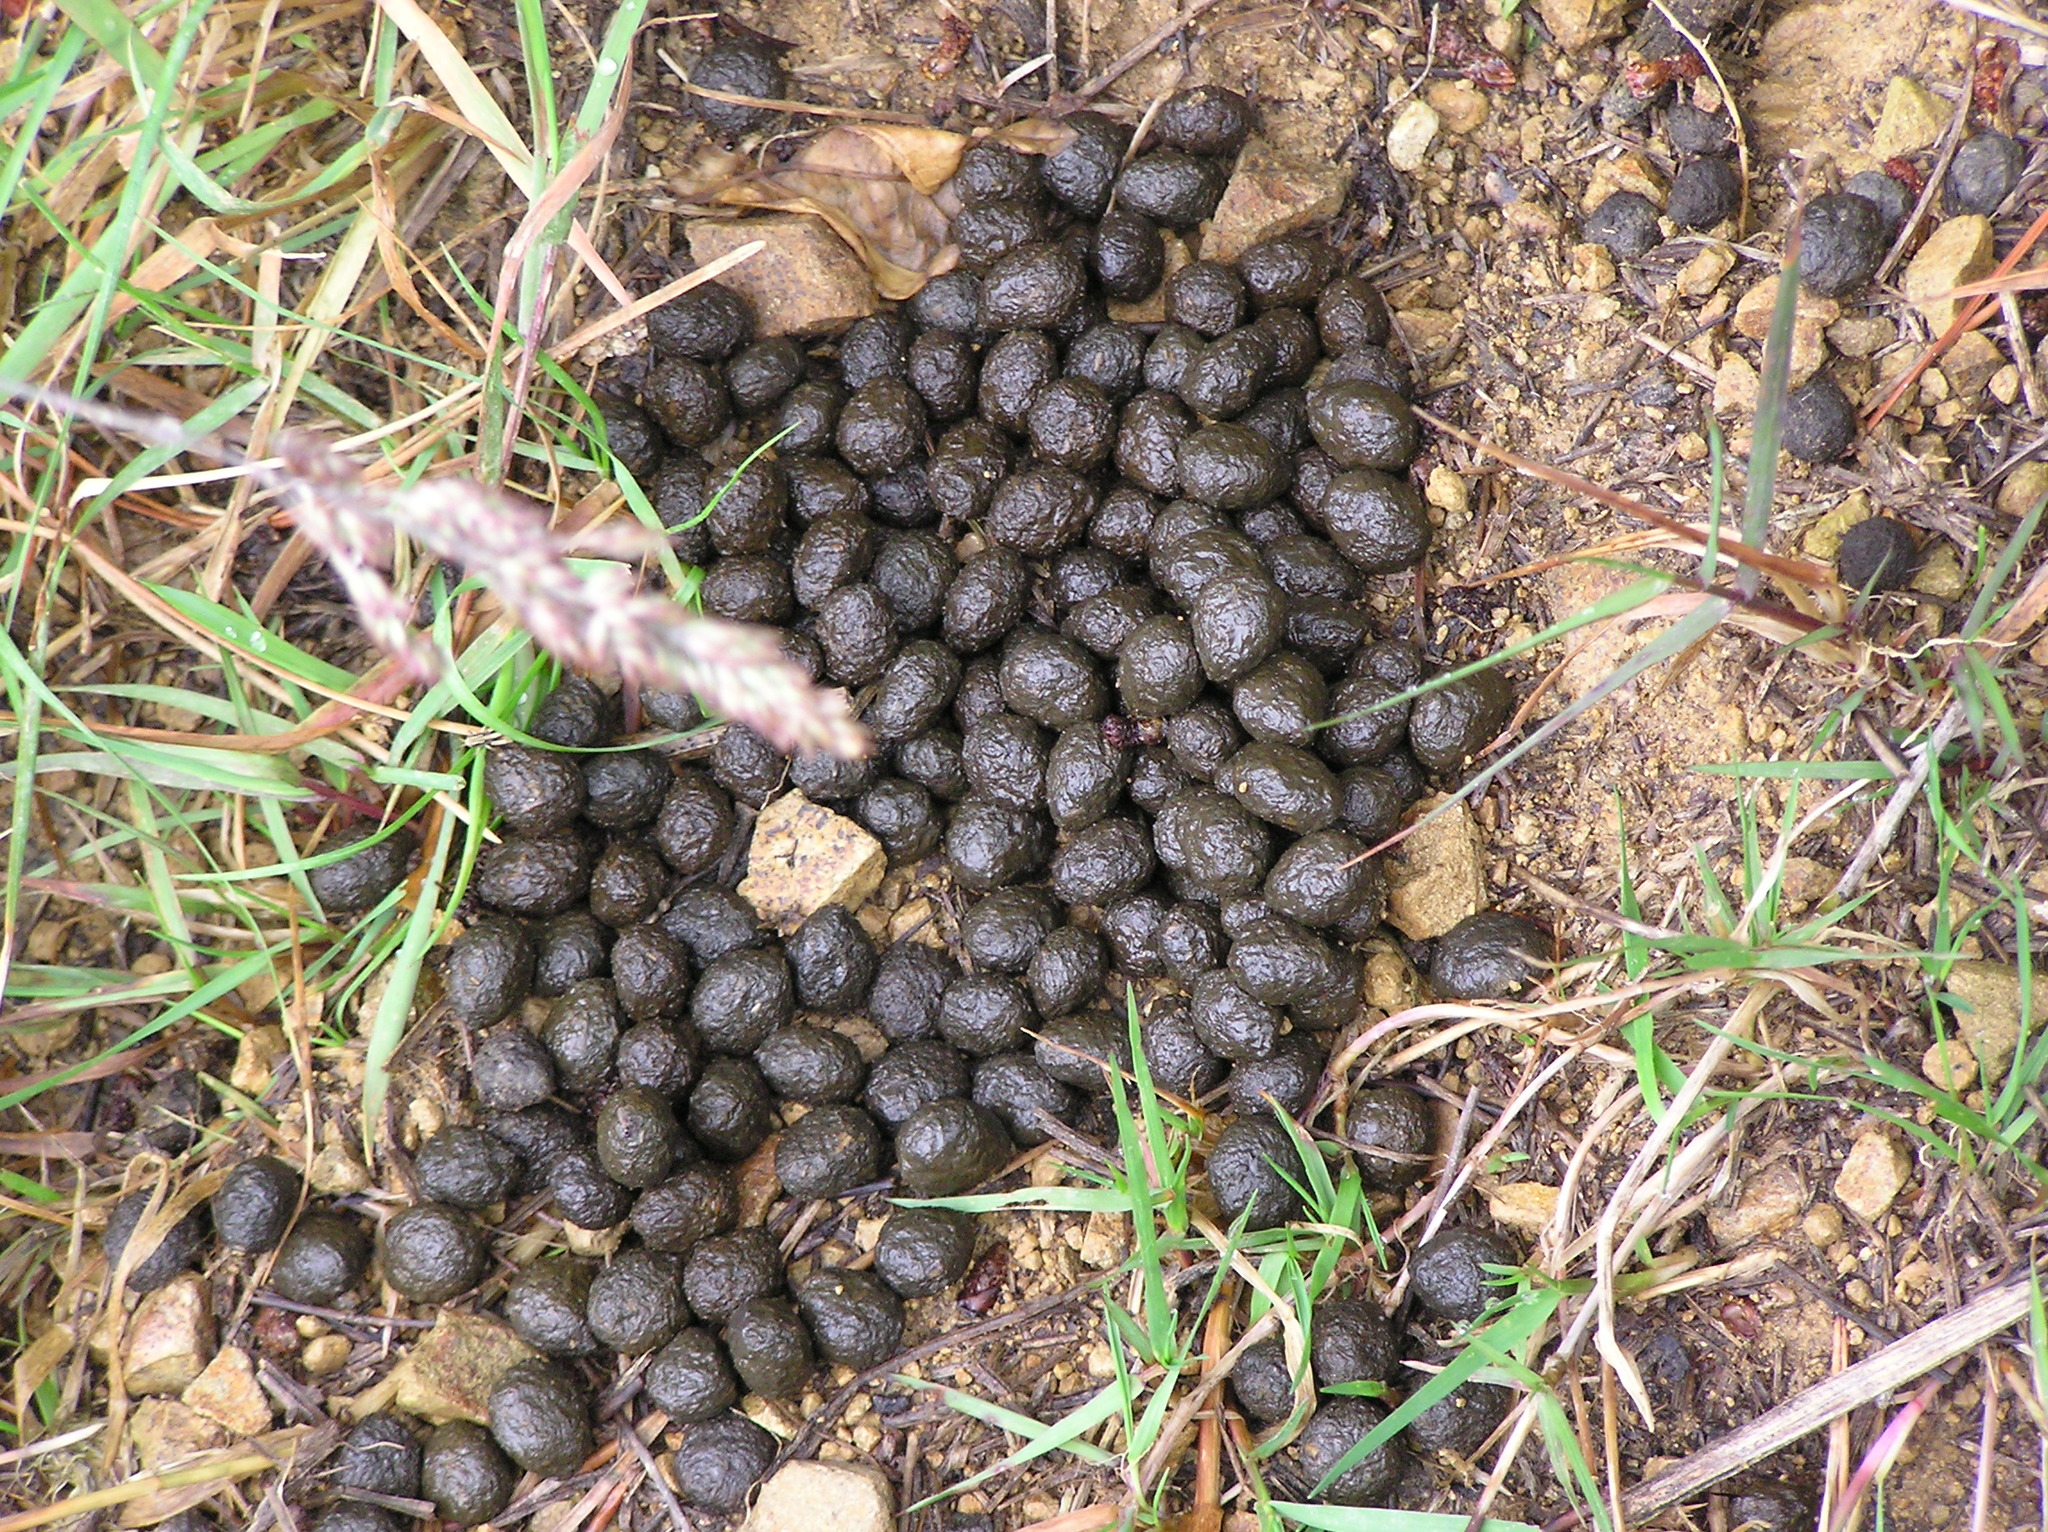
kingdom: Animalia
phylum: Chordata
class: Mammalia
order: Lagomorpha
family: Leporidae
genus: Oryctolagus
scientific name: Oryctolagus cuniculus
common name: European rabbit
